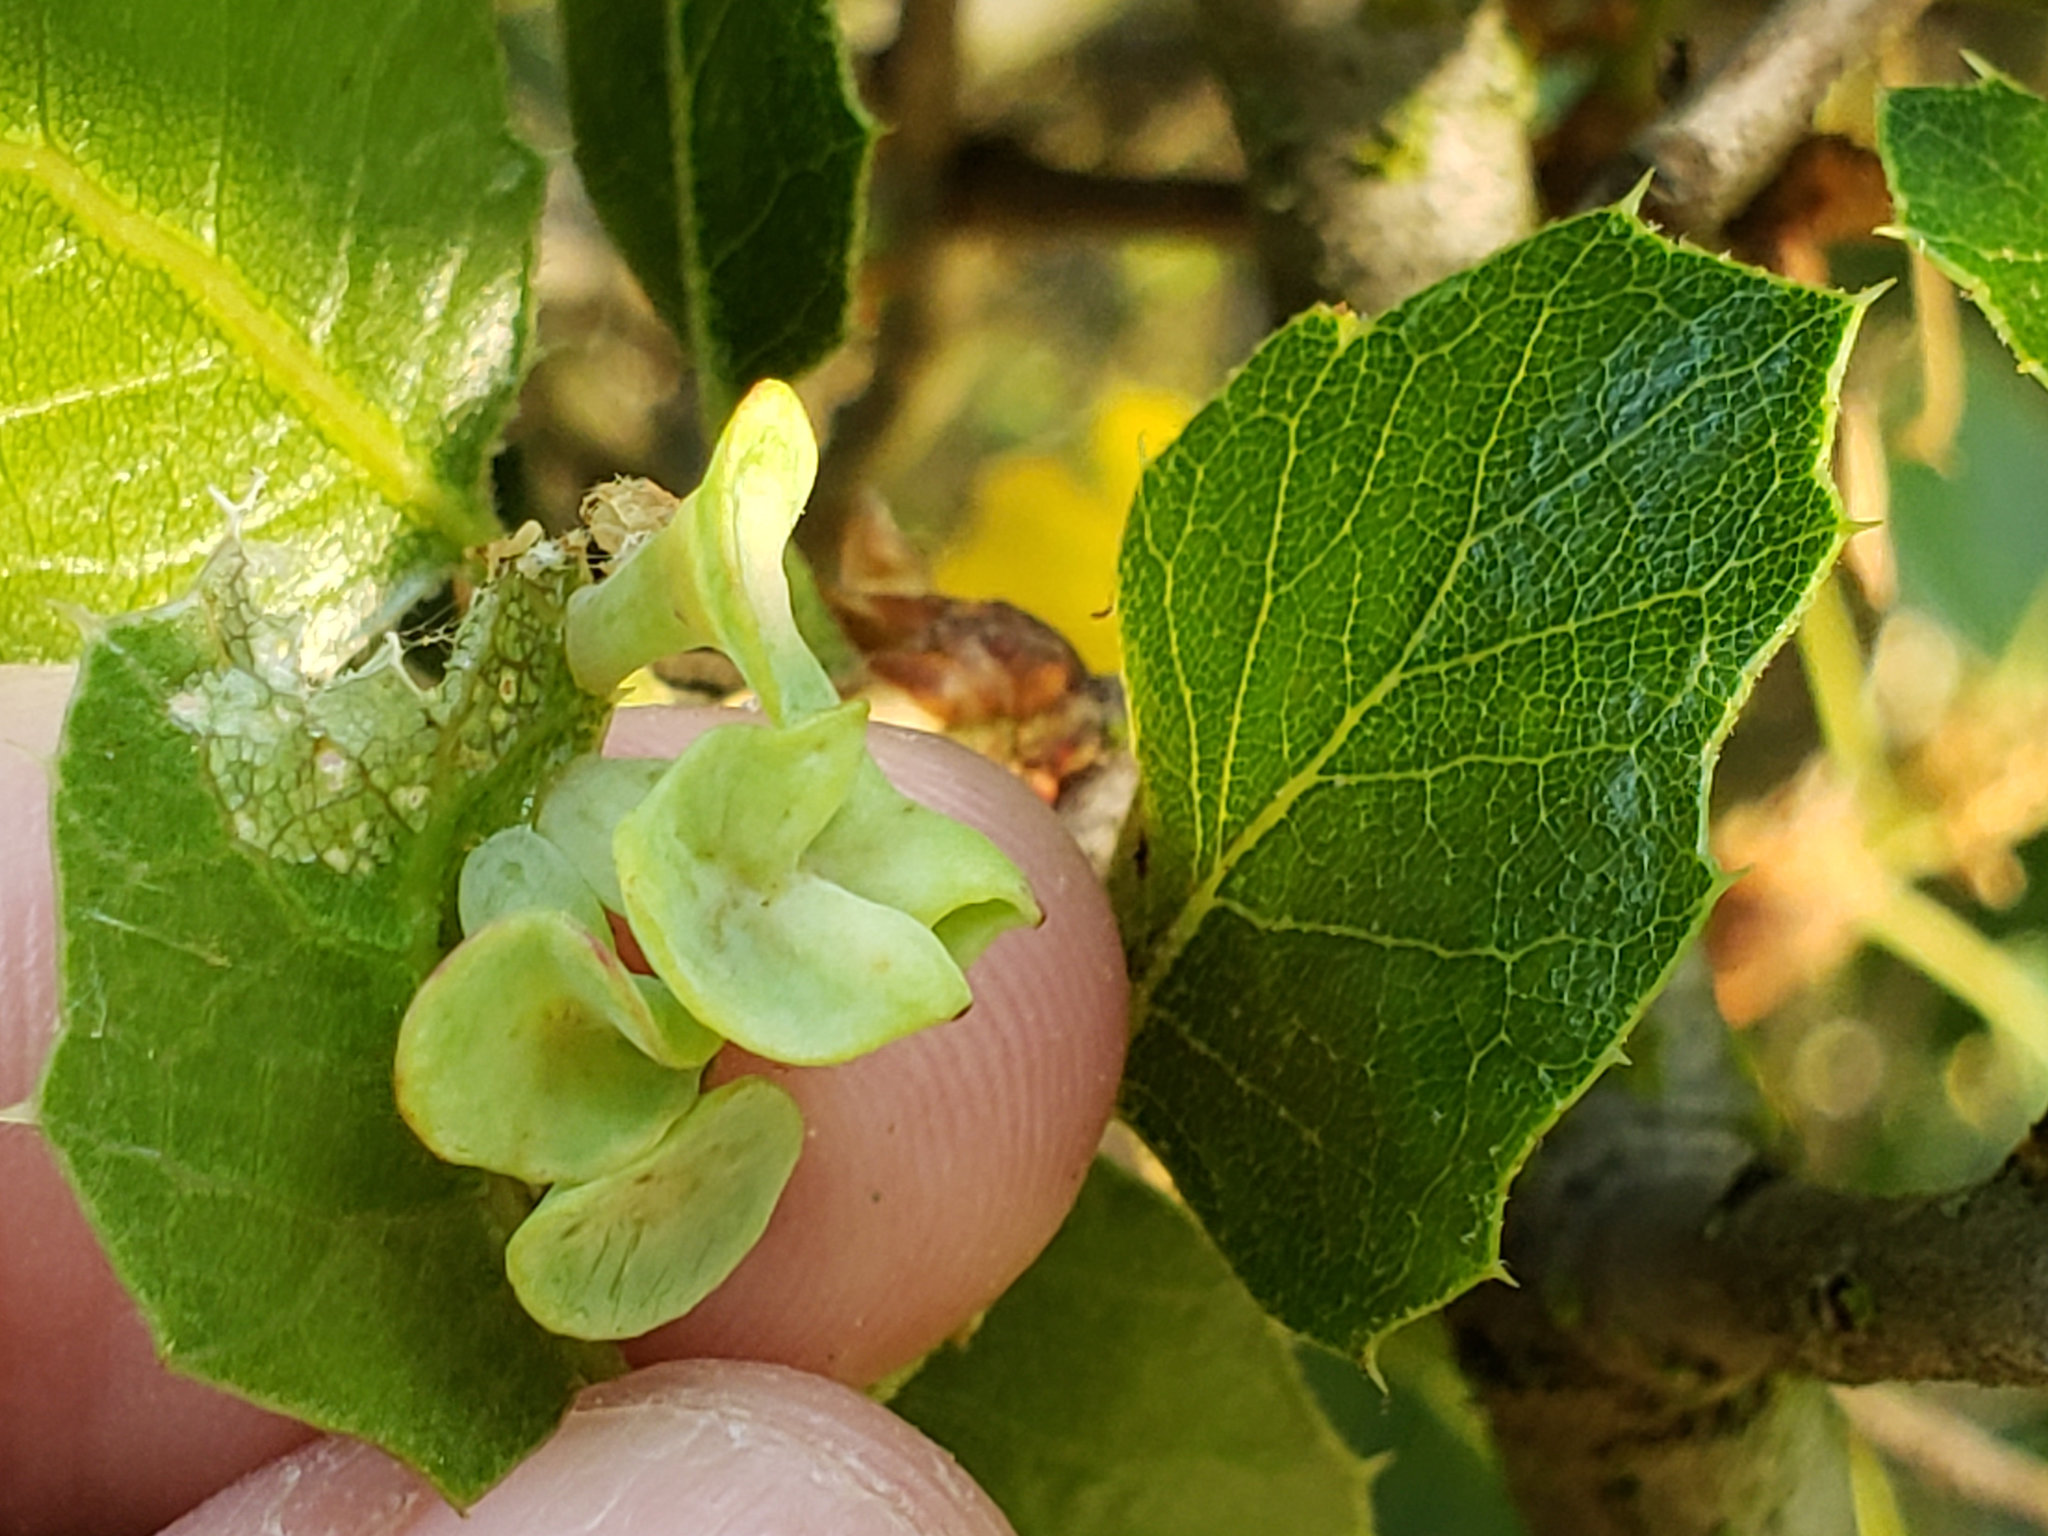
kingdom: Animalia
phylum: Arthropoda
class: Insecta
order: Hymenoptera
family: Cynipidae
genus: Amphibolips
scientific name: Amphibolips quercuspomiformis
